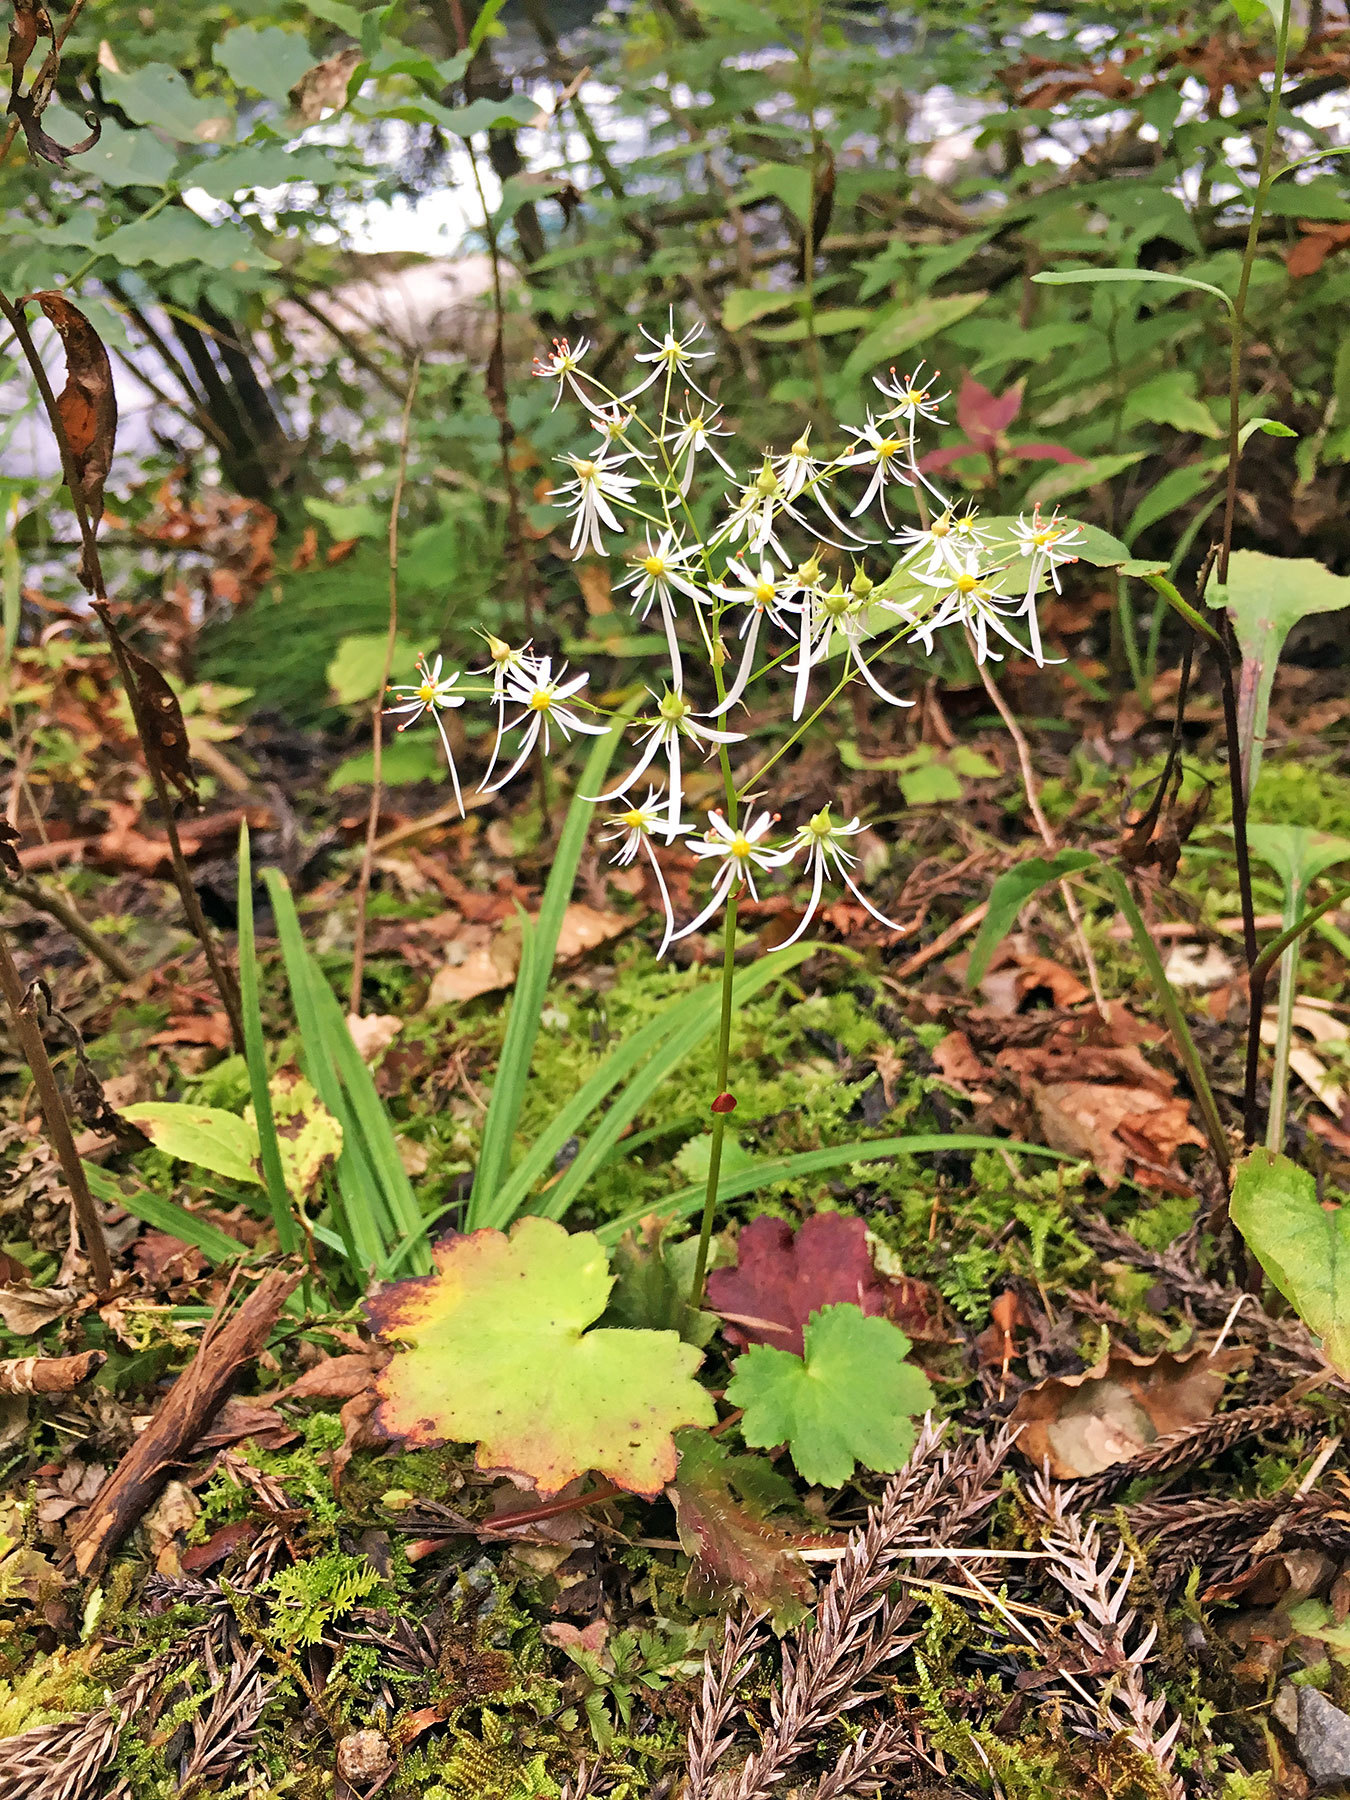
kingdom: Plantae
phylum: Tracheophyta
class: Magnoliopsida
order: Saxifragales
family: Saxifragaceae
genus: Saxifraga
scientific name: Saxifraga fortunei
